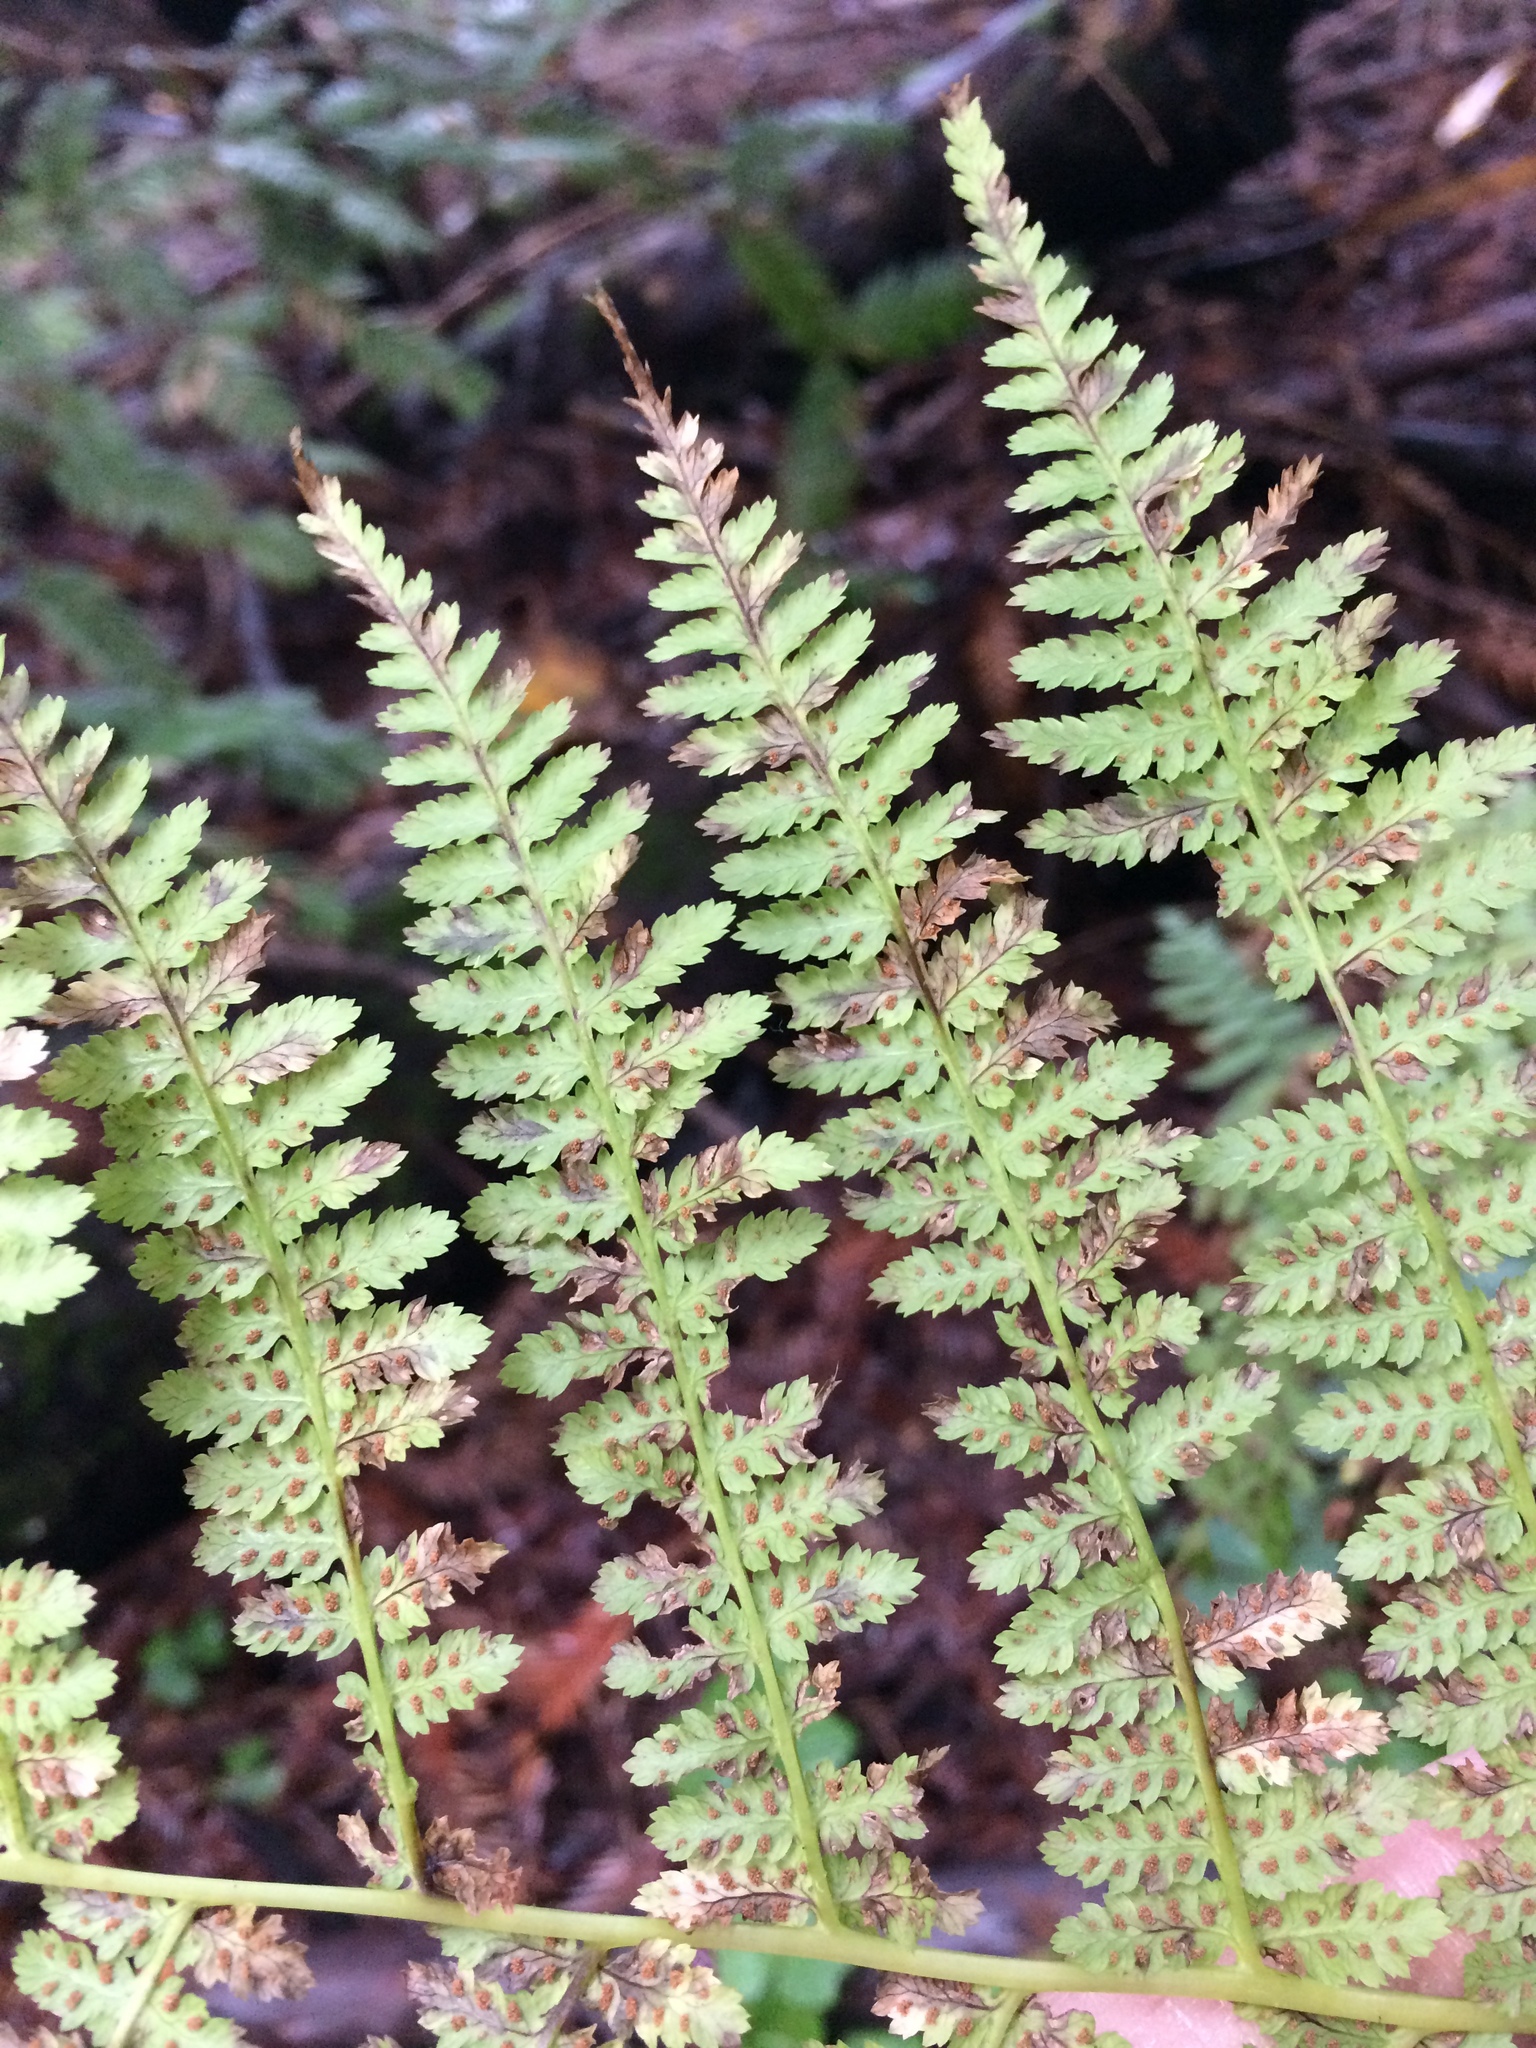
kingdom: Plantae
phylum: Tracheophyta
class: Polypodiopsida
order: Polypodiales
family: Athyriaceae
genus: Athyrium
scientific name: Athyrium filix-femina
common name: Lady fern
